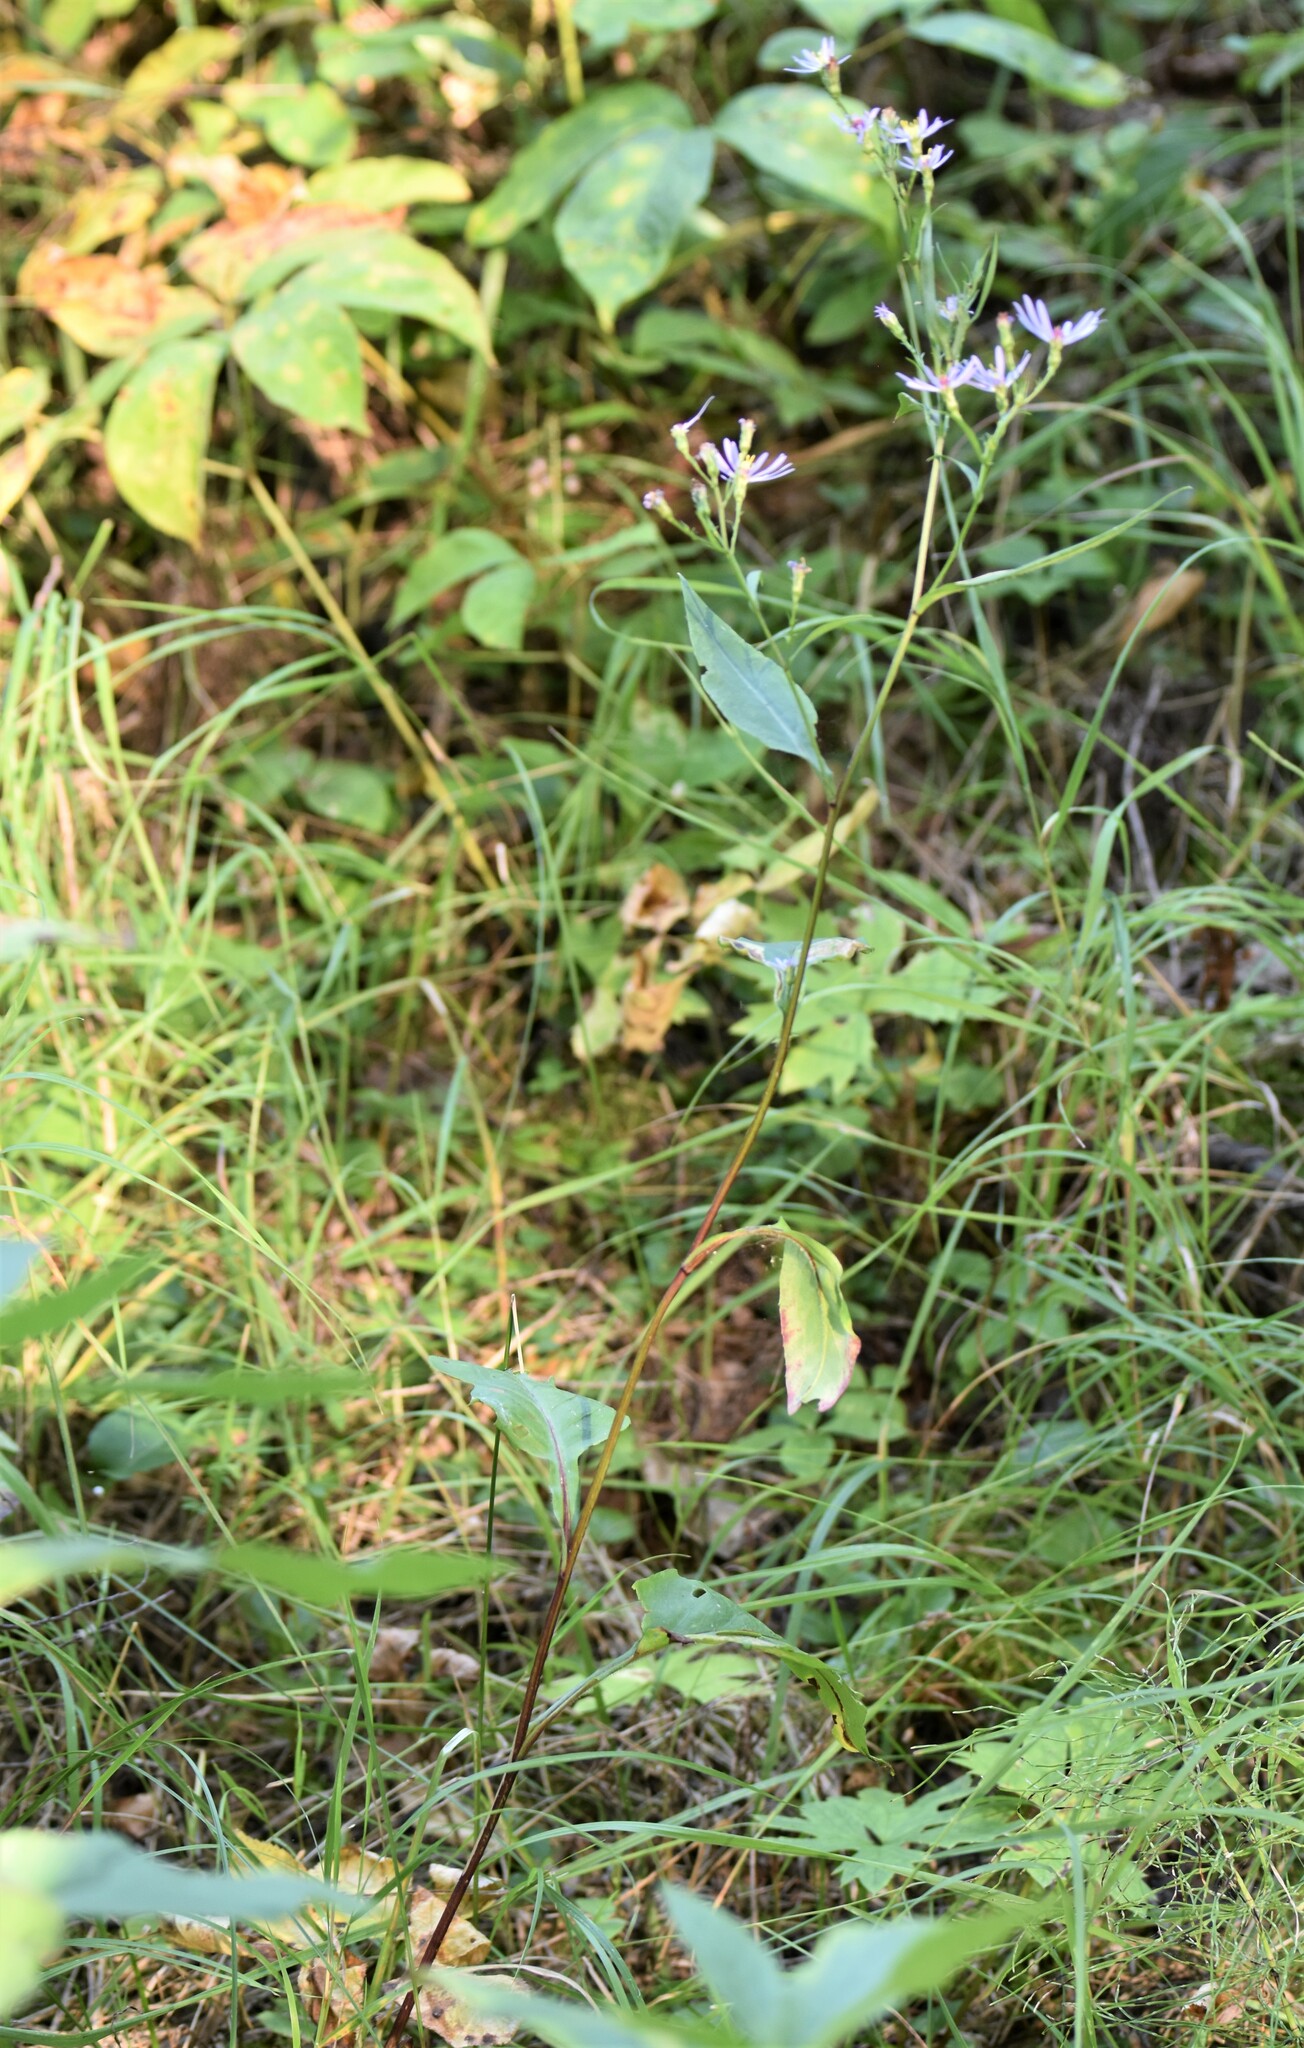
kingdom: Plantae
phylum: Tracheophyta
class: Magnoliopsida
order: Asterales
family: Asteraceae
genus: Symphyotrichum
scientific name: Symphyotrichum ciliolatum
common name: Fringed blue aster
